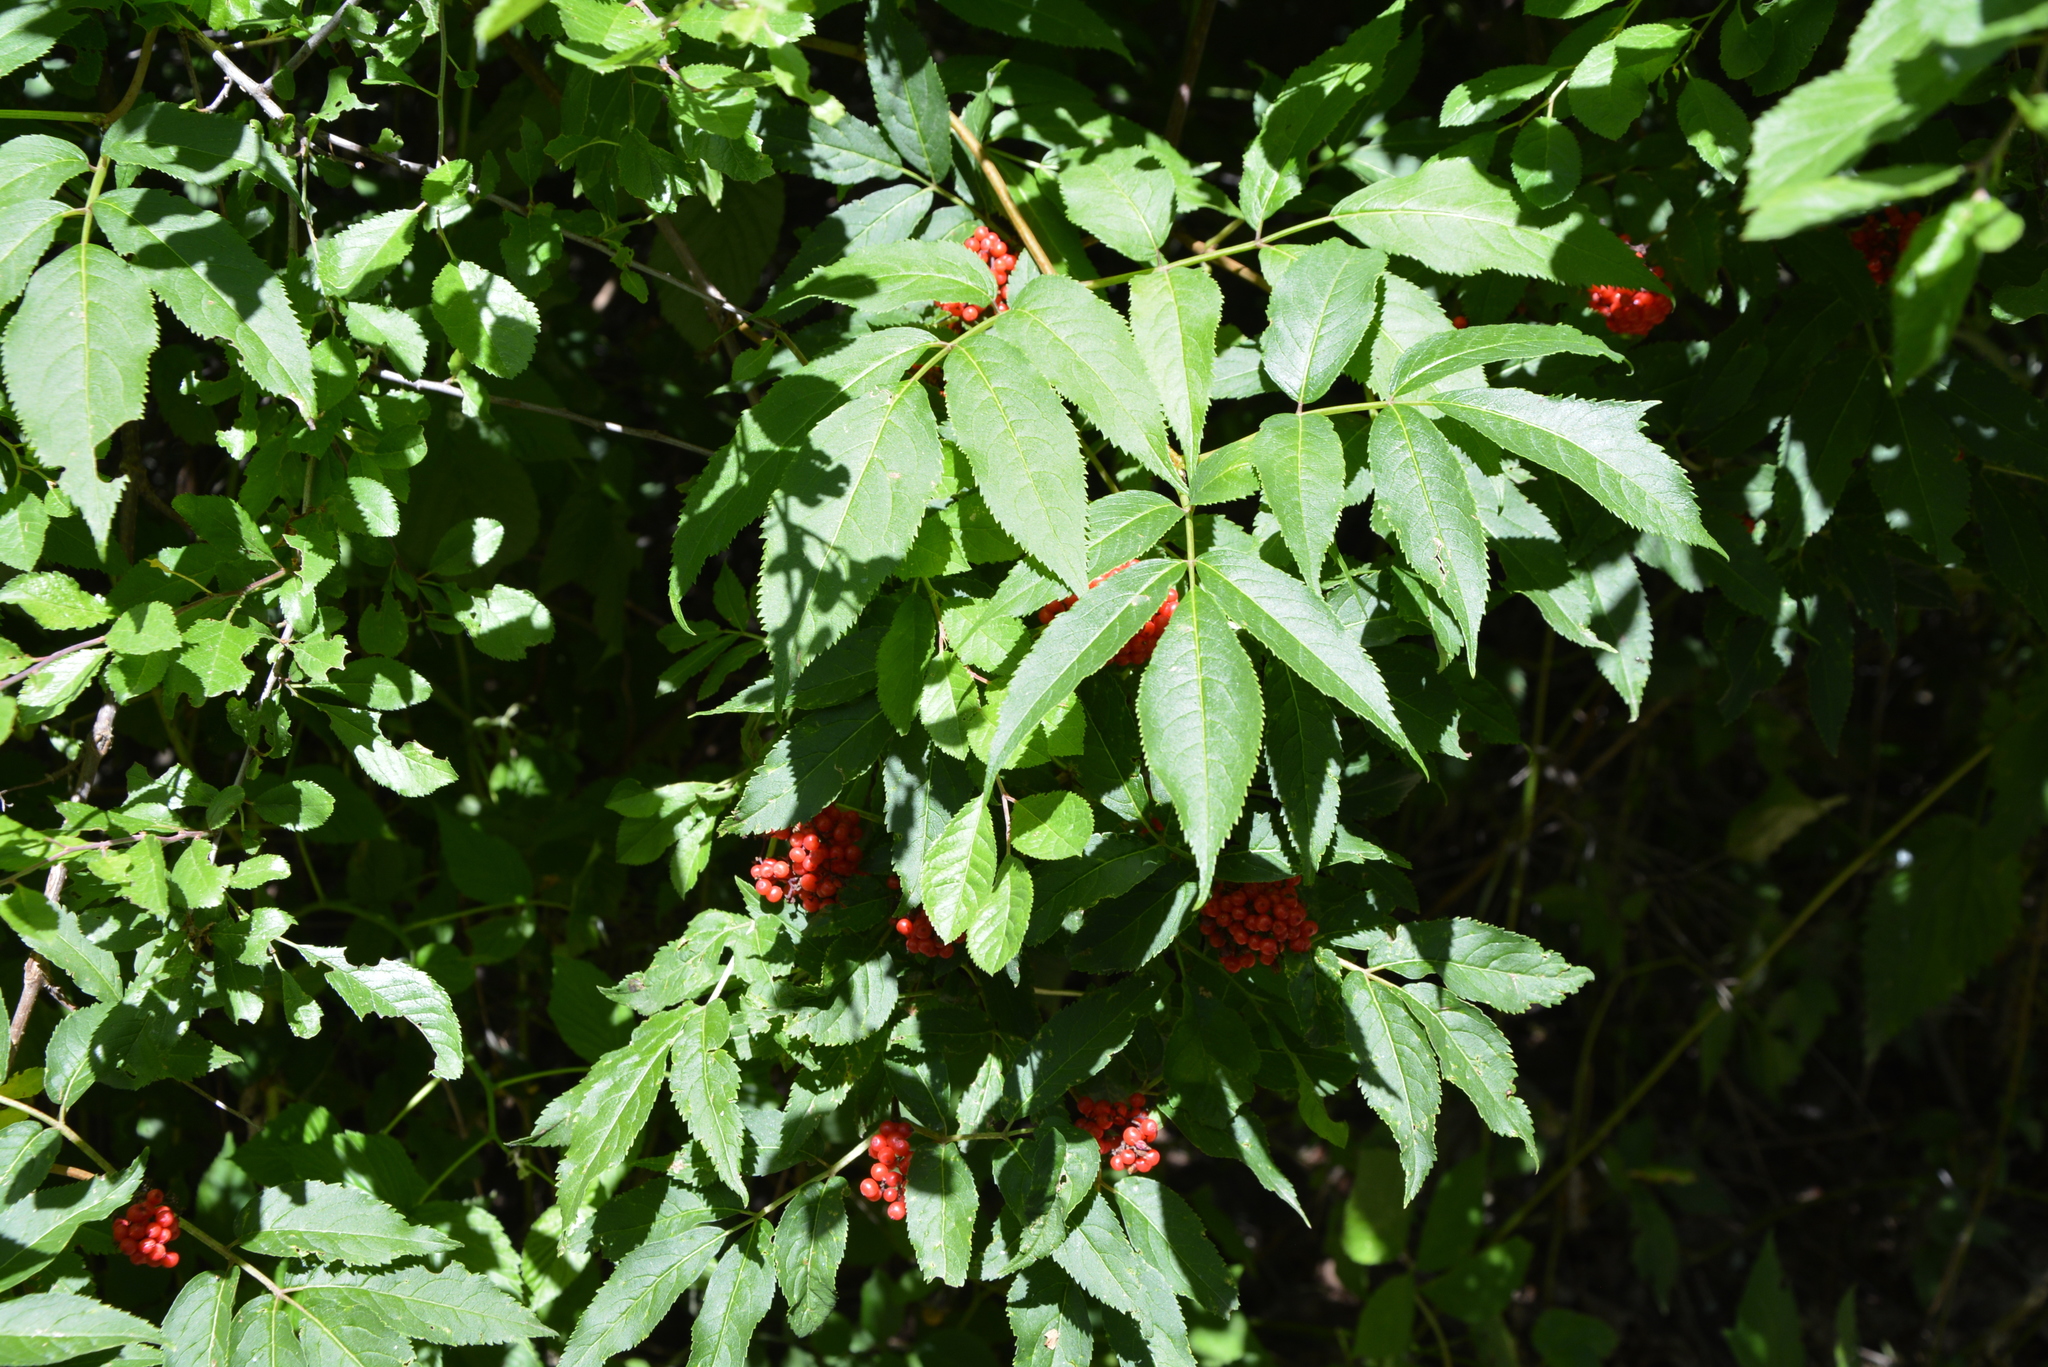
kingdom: Plantae
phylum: Tracheophyta
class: Magnoliopsida
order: Dipsacales
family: Viburnaceae
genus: Sambucus
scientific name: Sambucus racemosa
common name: Red-berried elder
